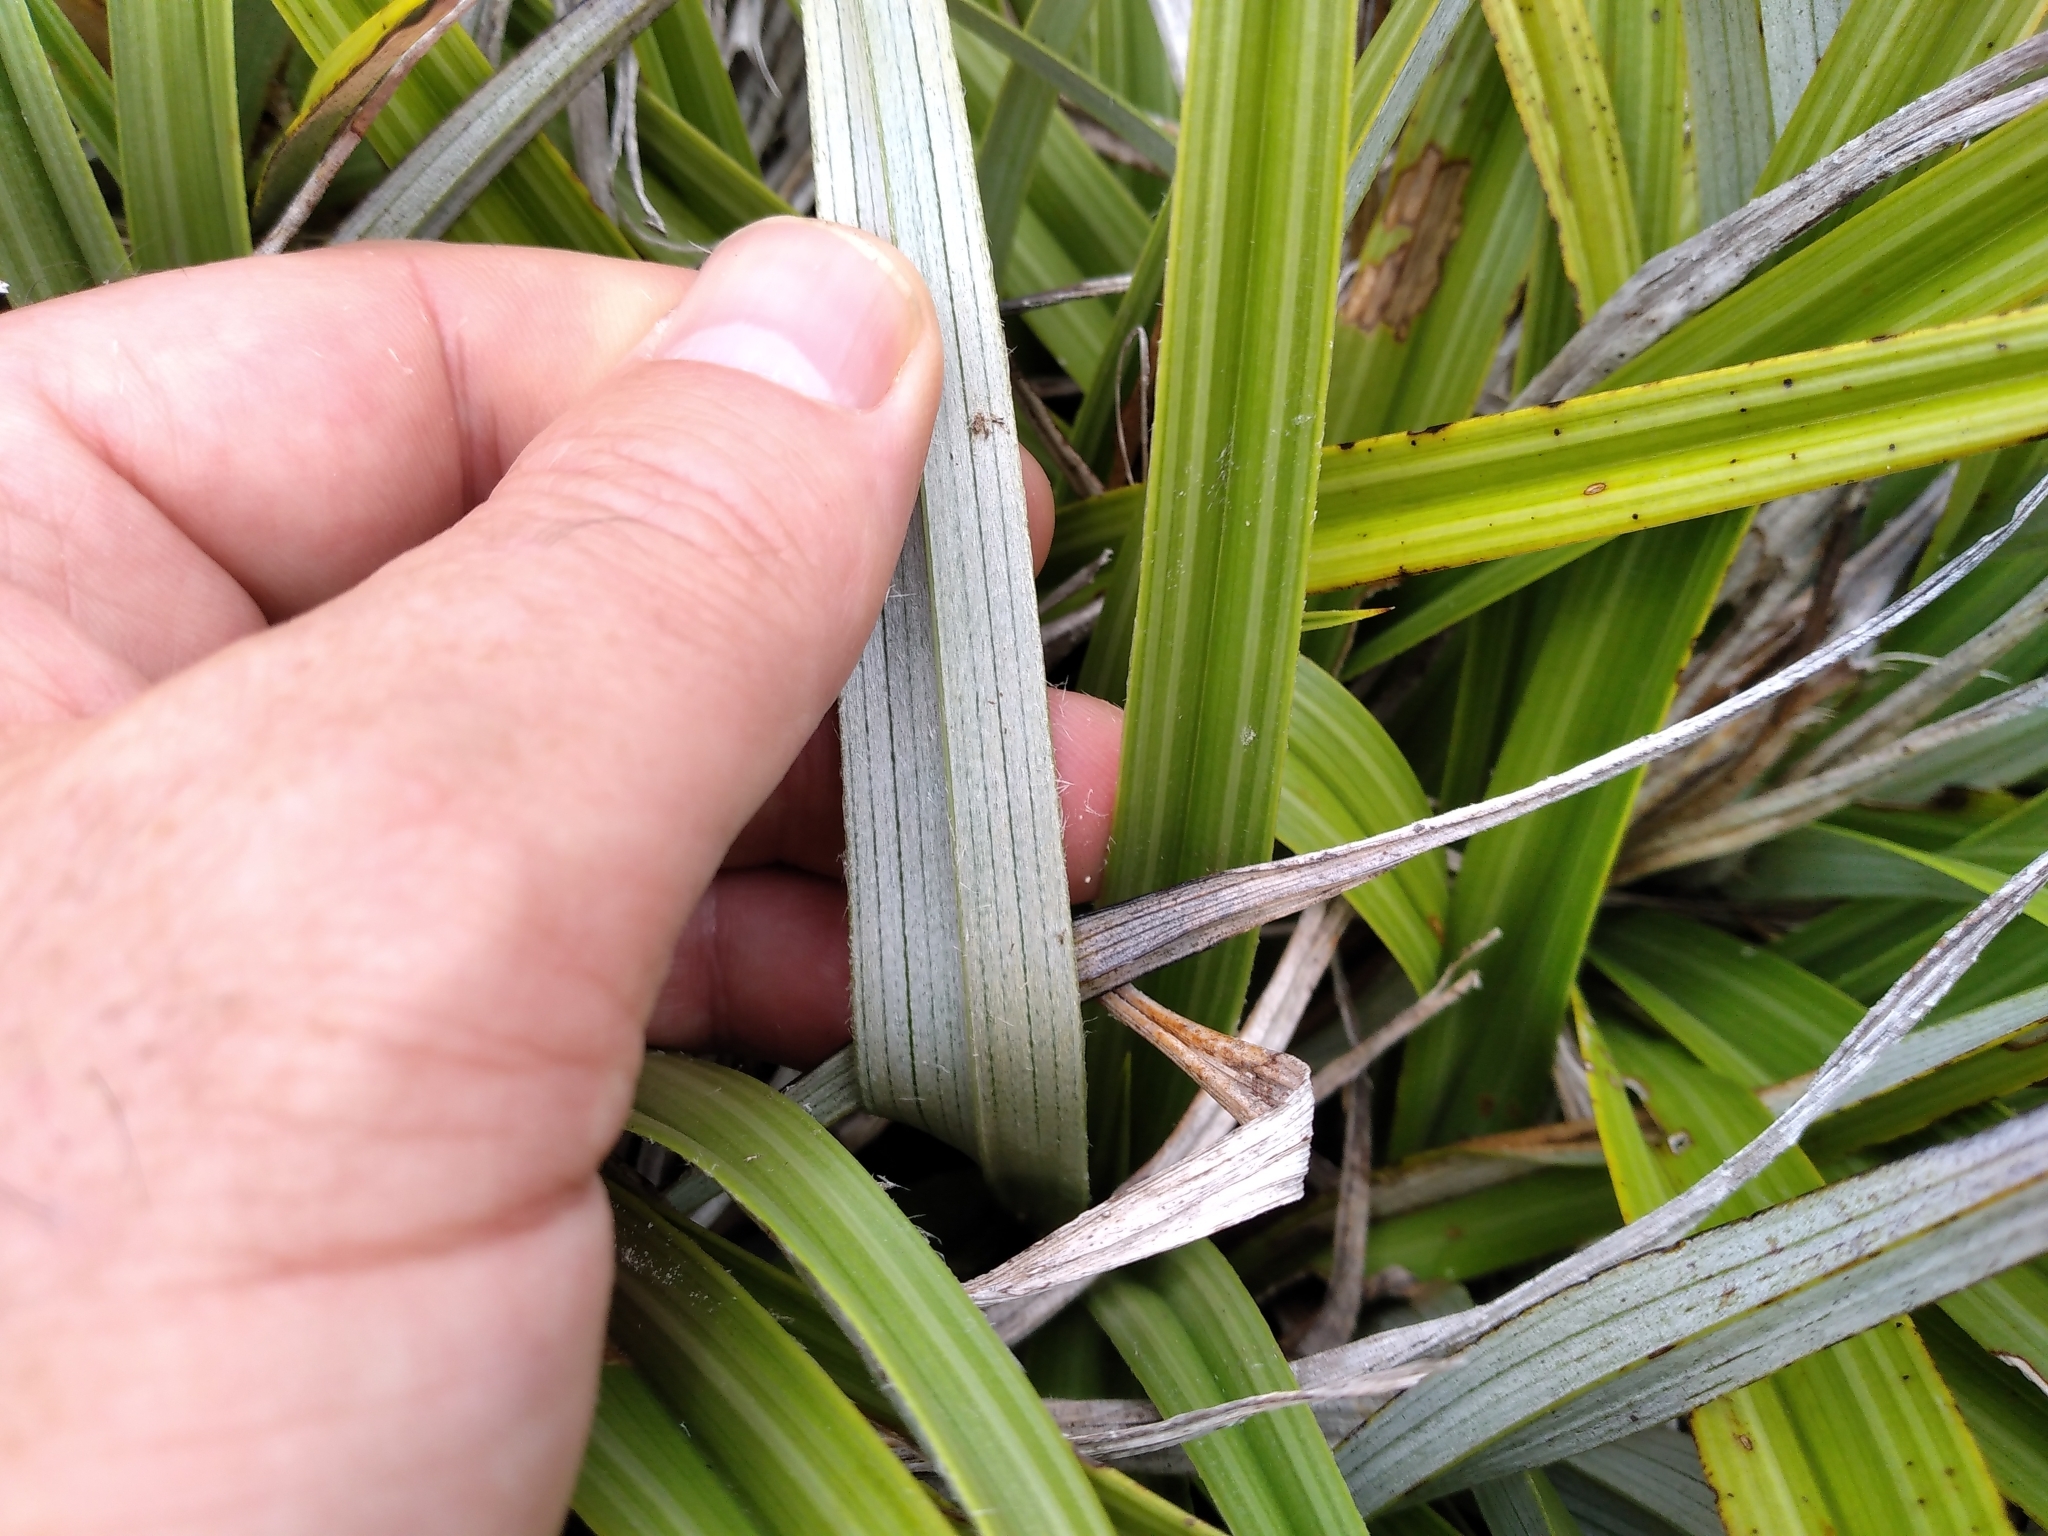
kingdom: Plantae
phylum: Tracheophyta
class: Liliopsida
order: Asparagales
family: Asteliaceae
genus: Astelia
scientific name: Astelia petriei
